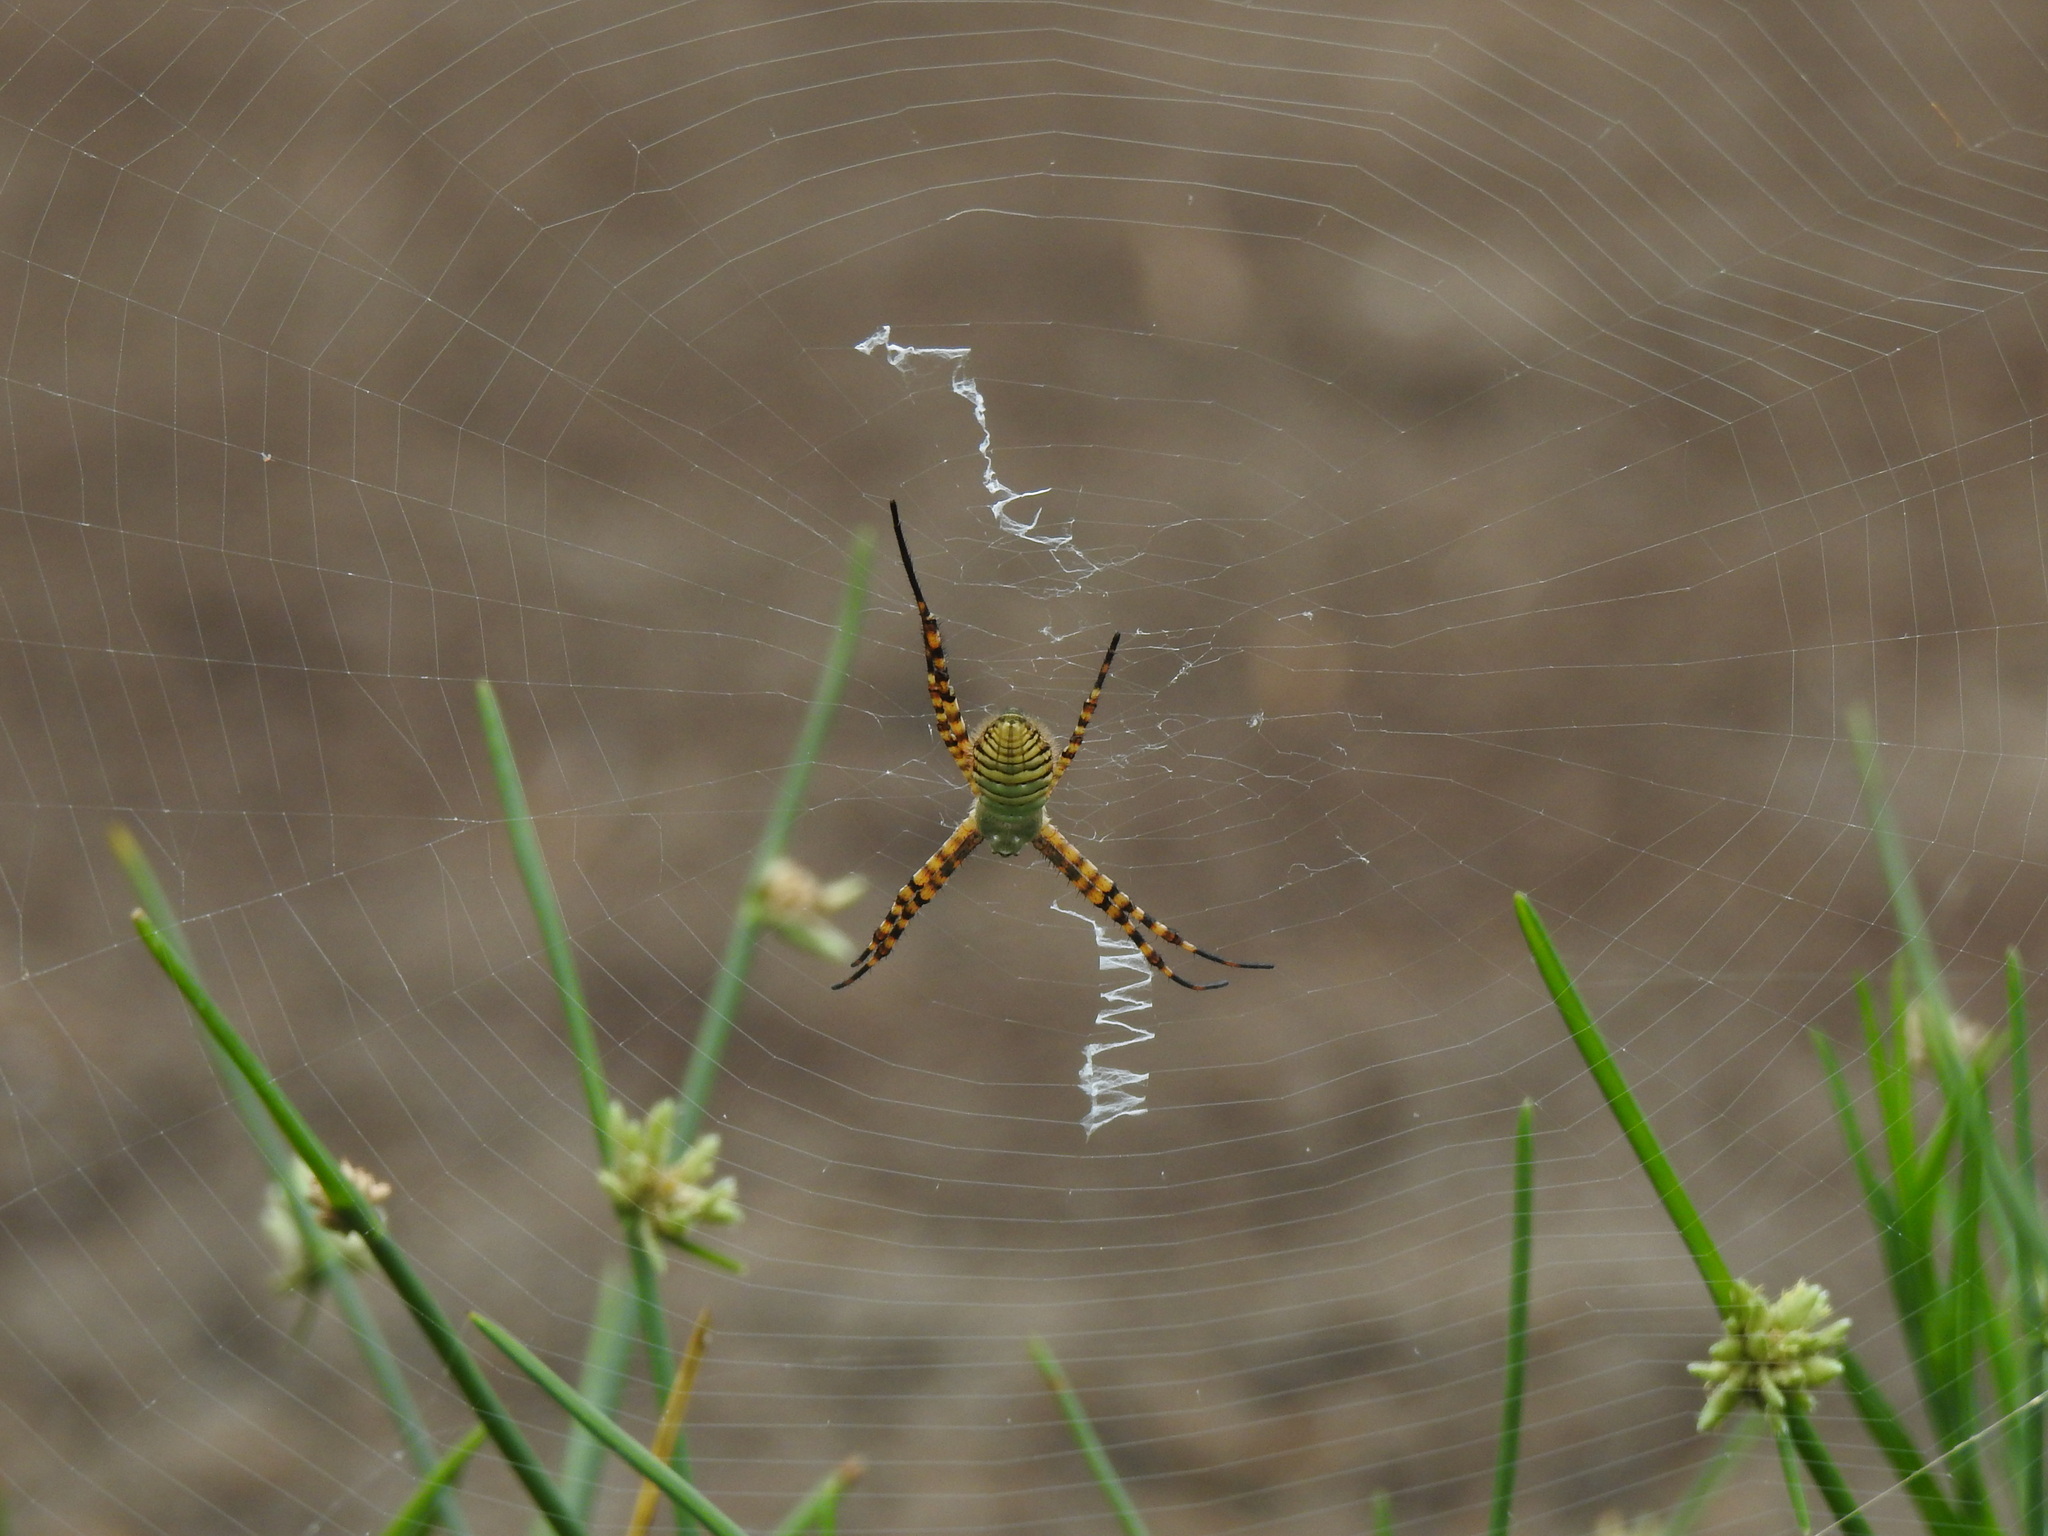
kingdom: Animalia
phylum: Arthropoda
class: Arachnida
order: Araneae
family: Araneidae
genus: Argiope
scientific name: Argiope trifasciata
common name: Banded garden spider
